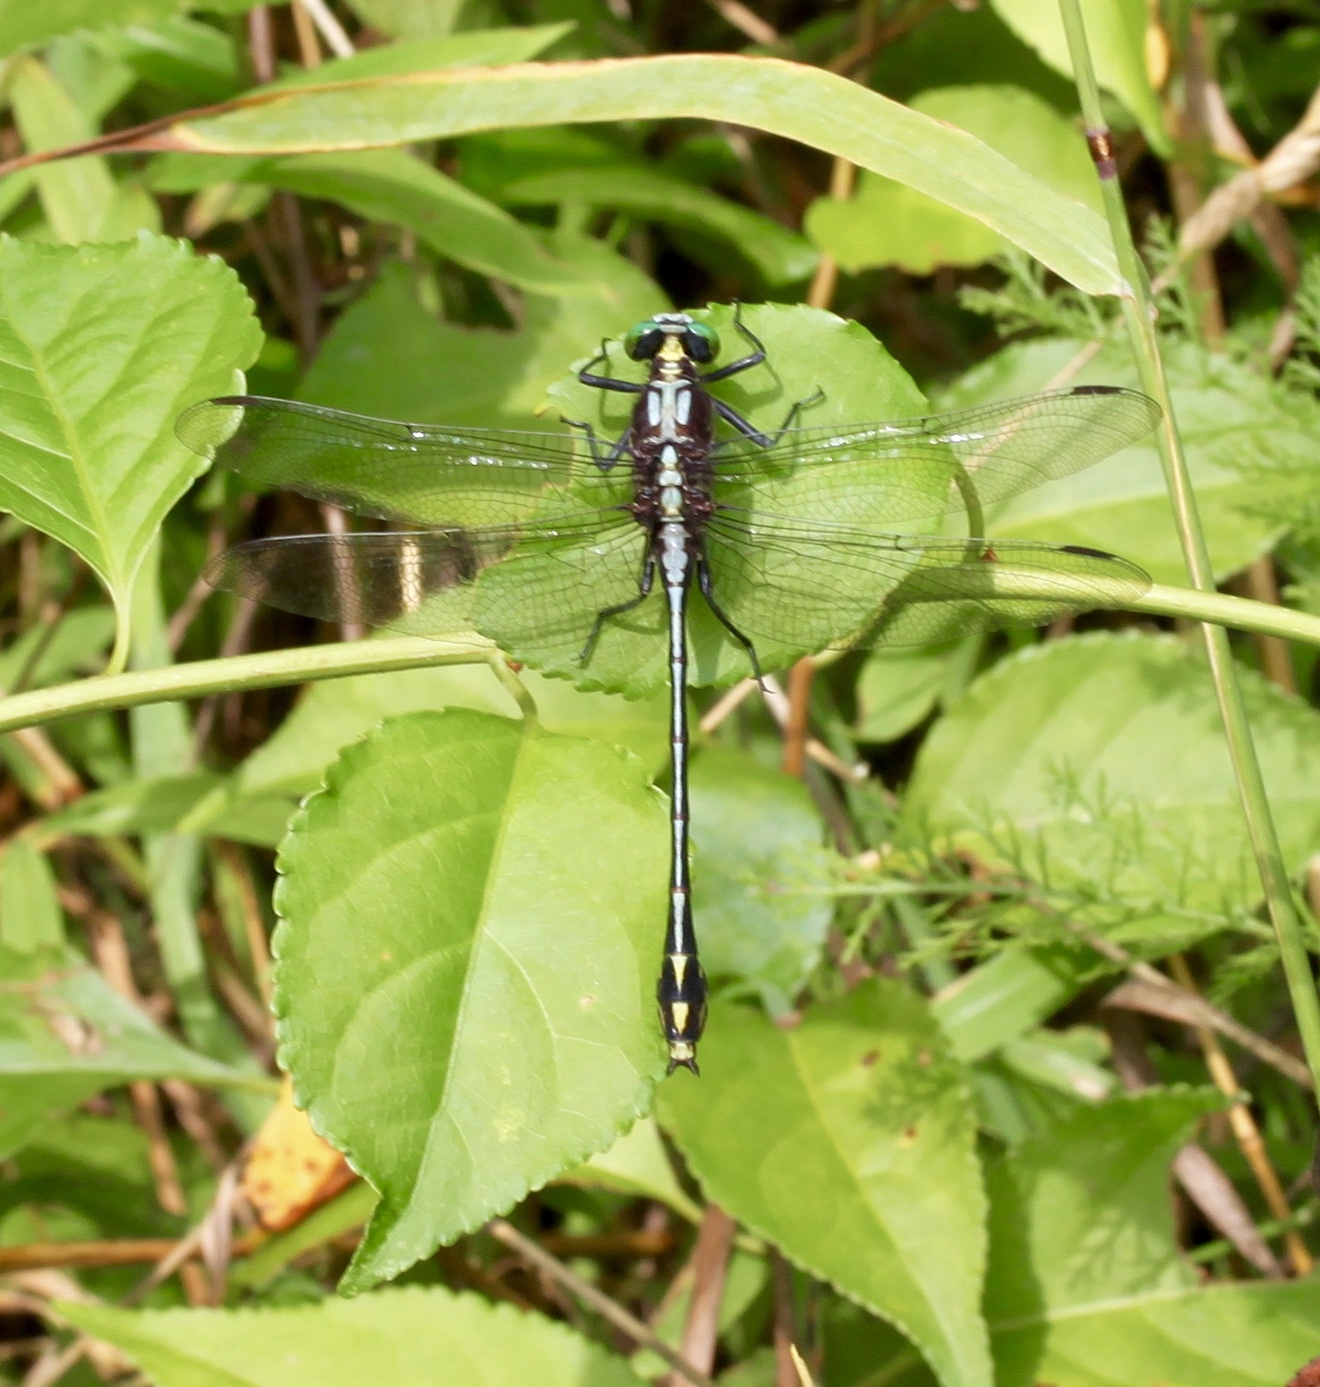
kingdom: Animalia
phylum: Arthropoda
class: Insecta
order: Odonata
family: Gomphidae
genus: Dromogomphus
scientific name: Dromogomphus spinosus
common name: Black-shouldered spinyleg
